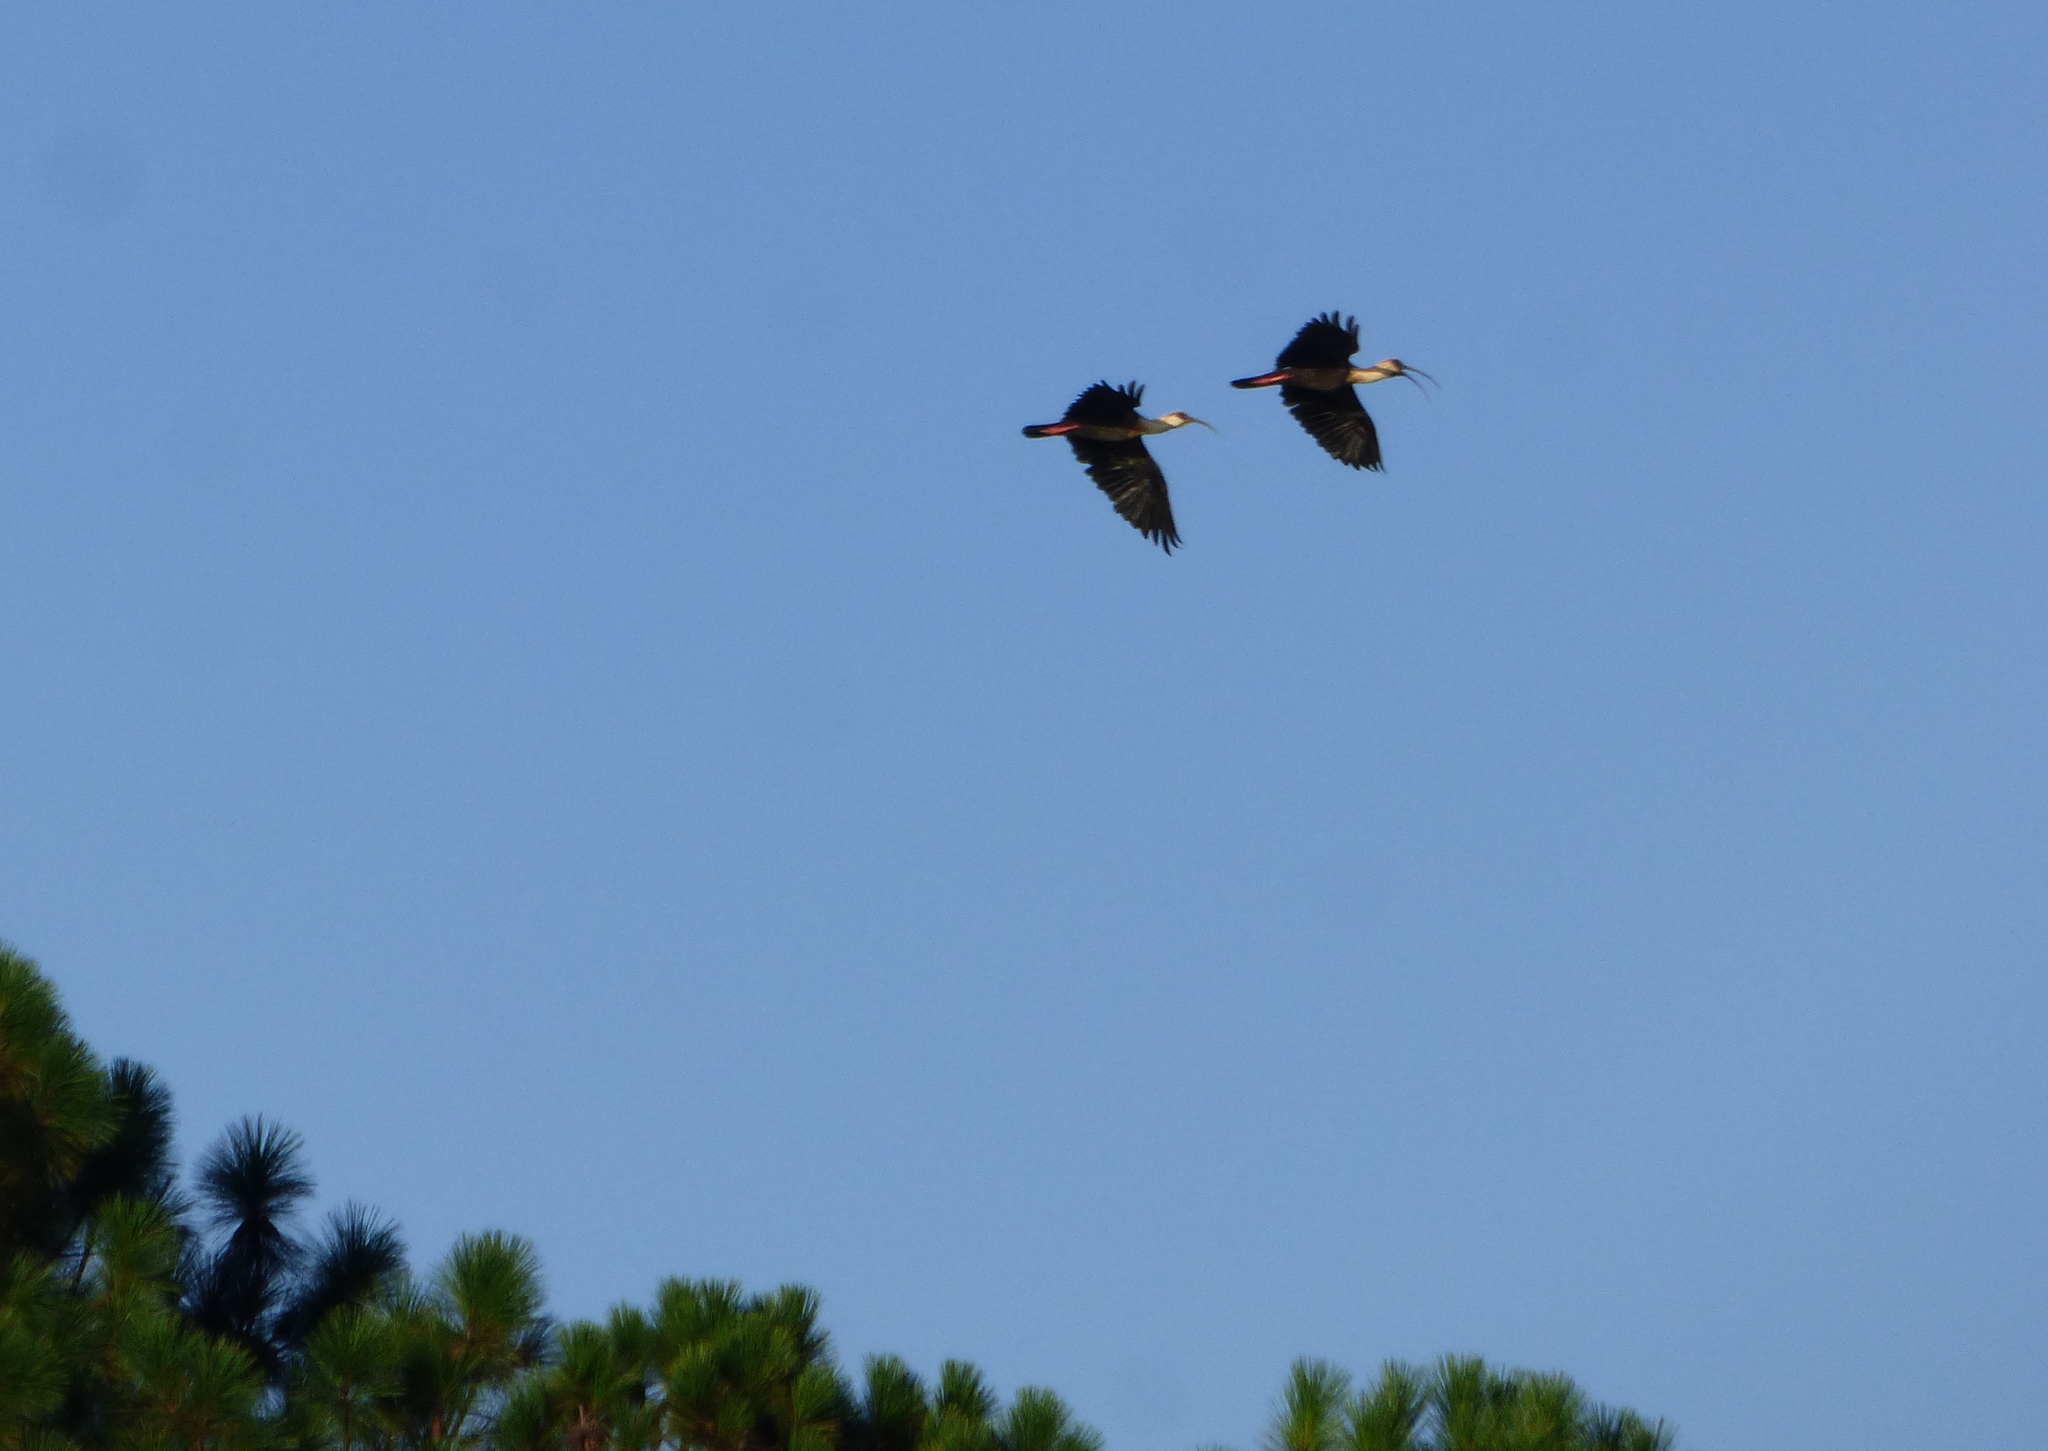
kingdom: Animalia
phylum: Chordata
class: Aves
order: Pelecaniformes
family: Threskiornithidae
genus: Theristicus
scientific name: Theristicus caudatus
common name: Buff-necked ibis
